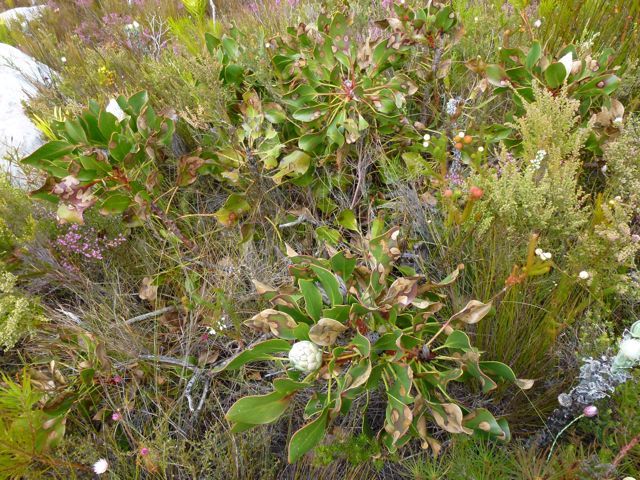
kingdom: Plantae
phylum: Tracheophyta
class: Magnoliopsida
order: Proteales
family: Proteaceae
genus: Protea
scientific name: Protea cynaroides
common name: King protea
